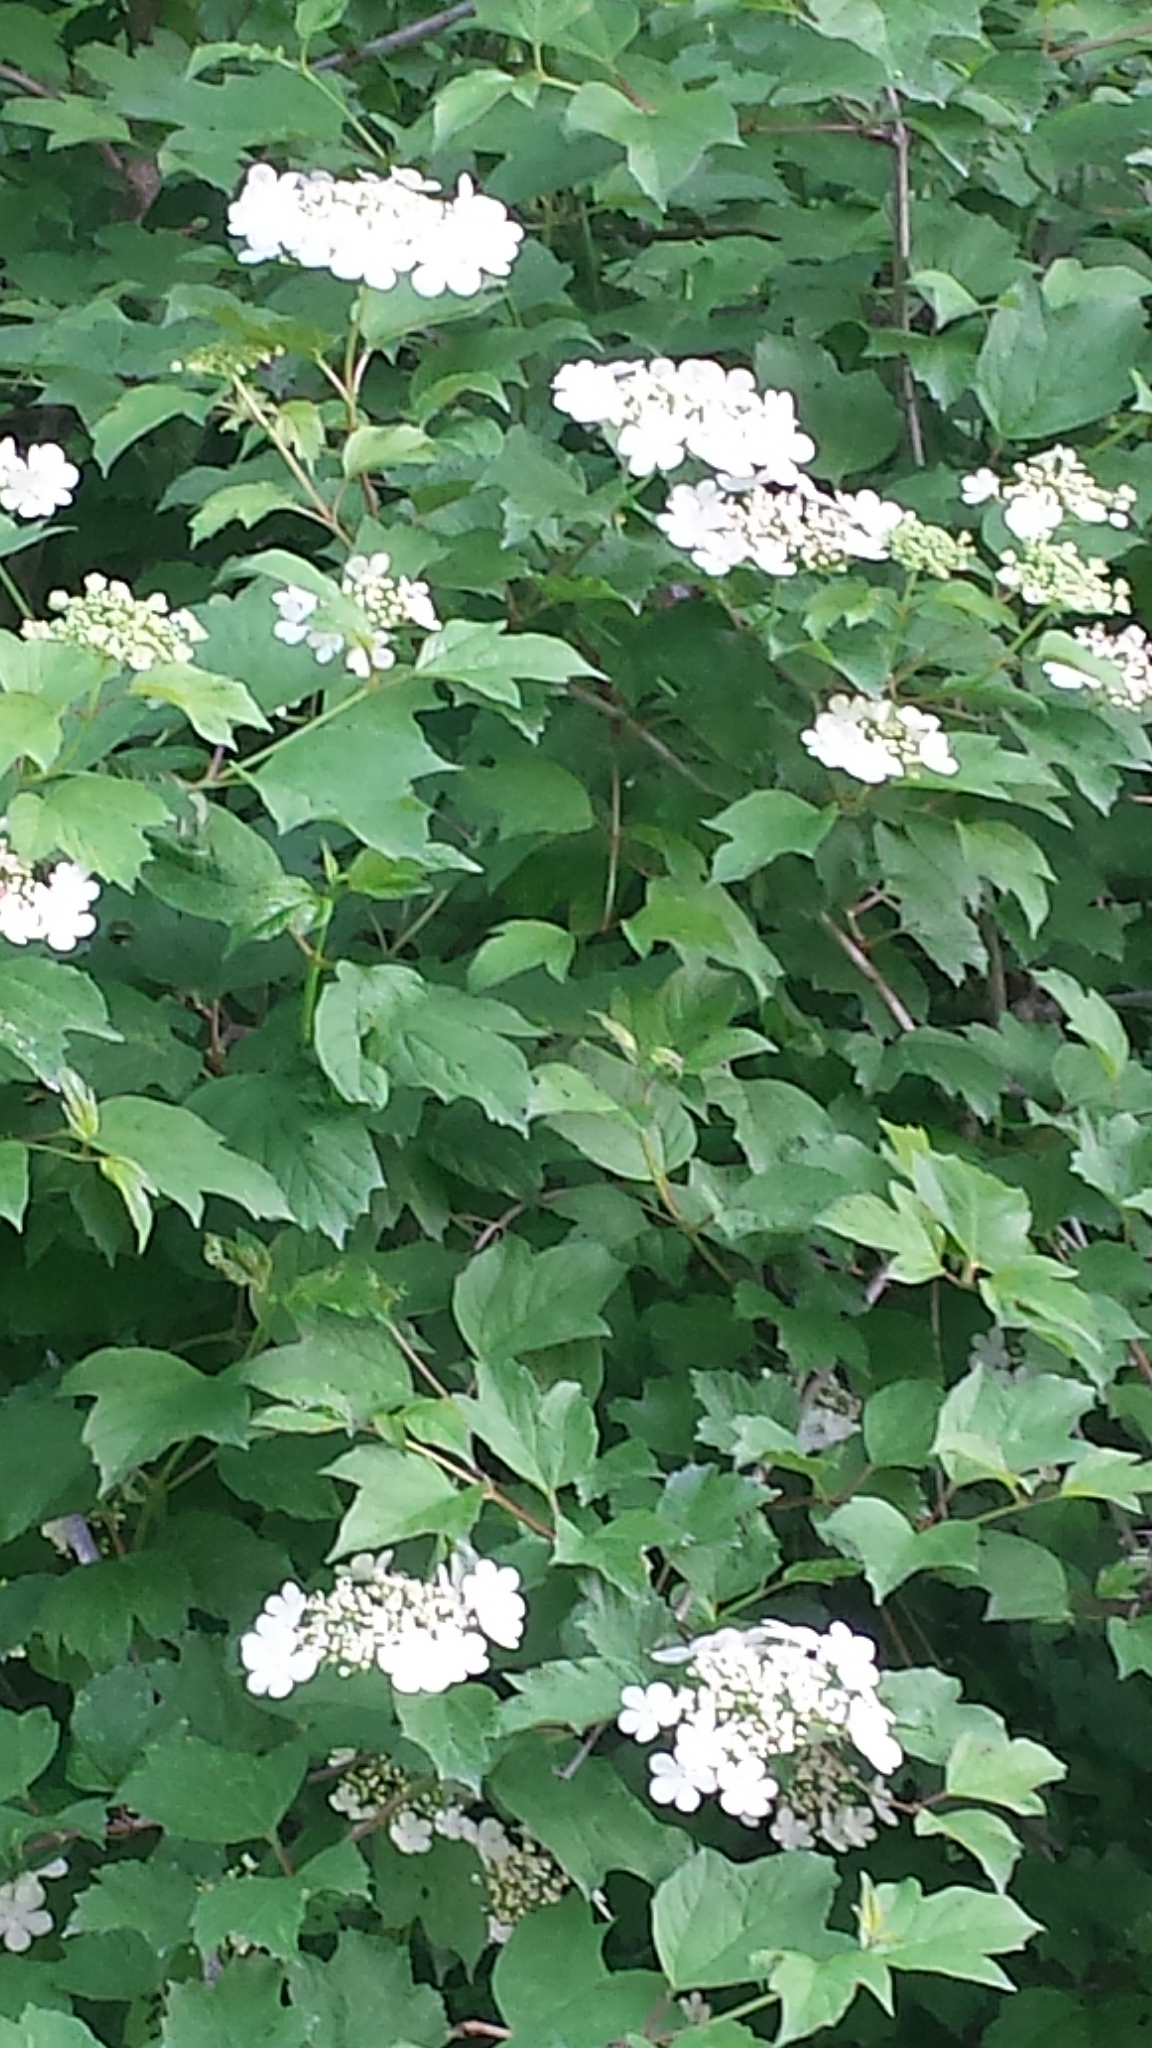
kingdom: Plantae
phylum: Tracheophyta
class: Magnoliopsida
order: Dipsacales
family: Viburnaceae
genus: Viburnum
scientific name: Viburnum opulus
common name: Guelder-rose
